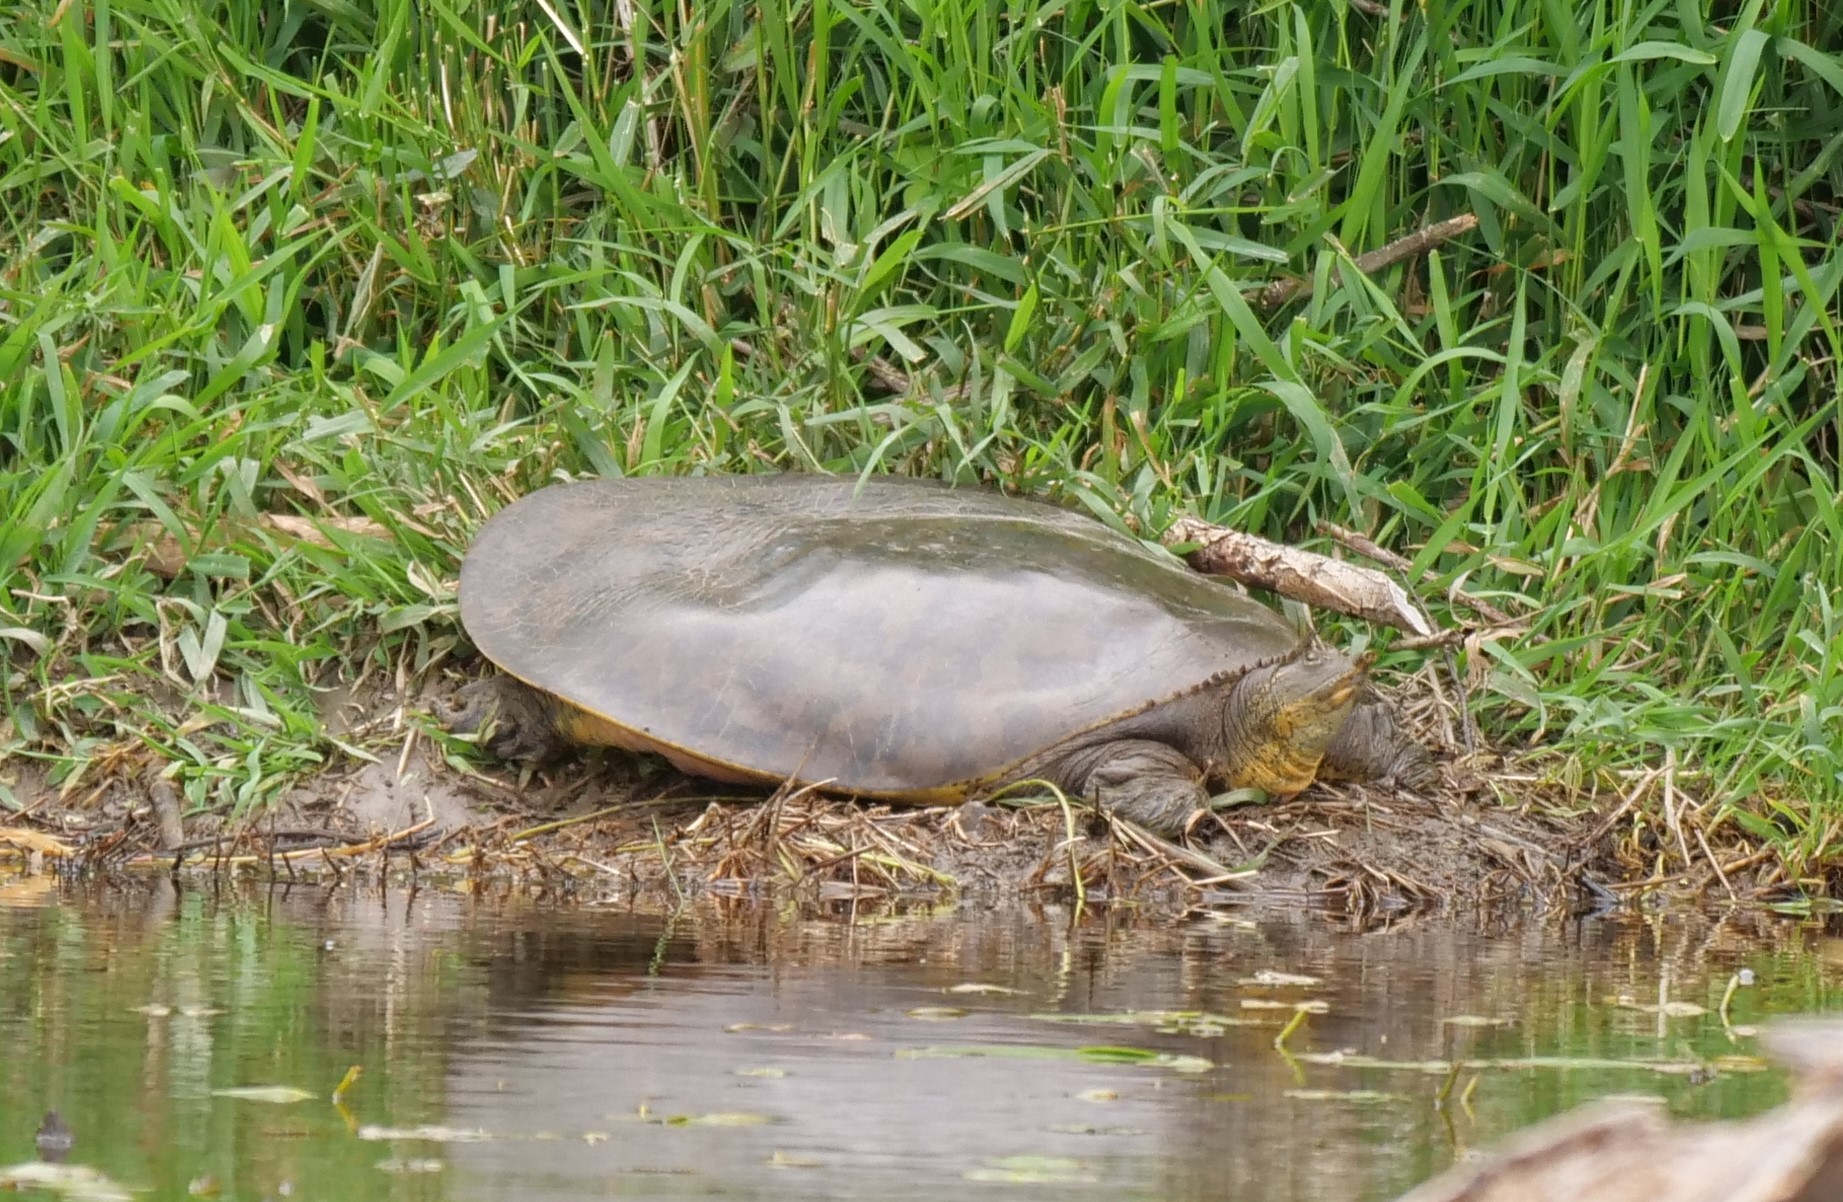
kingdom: Animalia
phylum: Chordata
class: Testudines
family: Trionychidae
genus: Apalone
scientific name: Apalone spinifera
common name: Spiny softshell turtle
